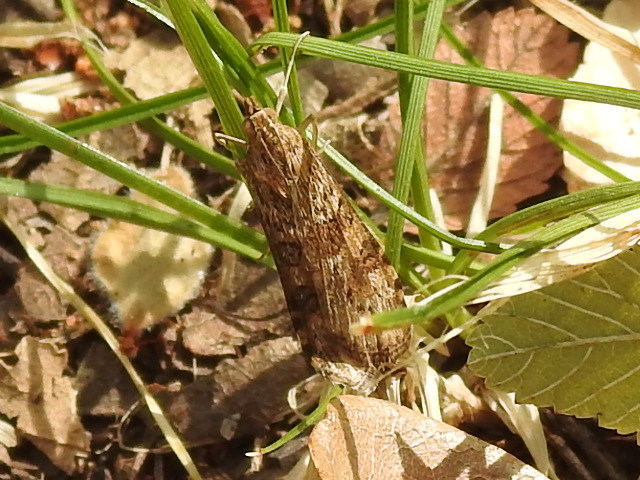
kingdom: Animalia
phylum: Arthropoda
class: Insecta
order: Lepidoptera
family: Crambidae
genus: Nomophila
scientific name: Nomophila nearctica
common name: American rush veneer
